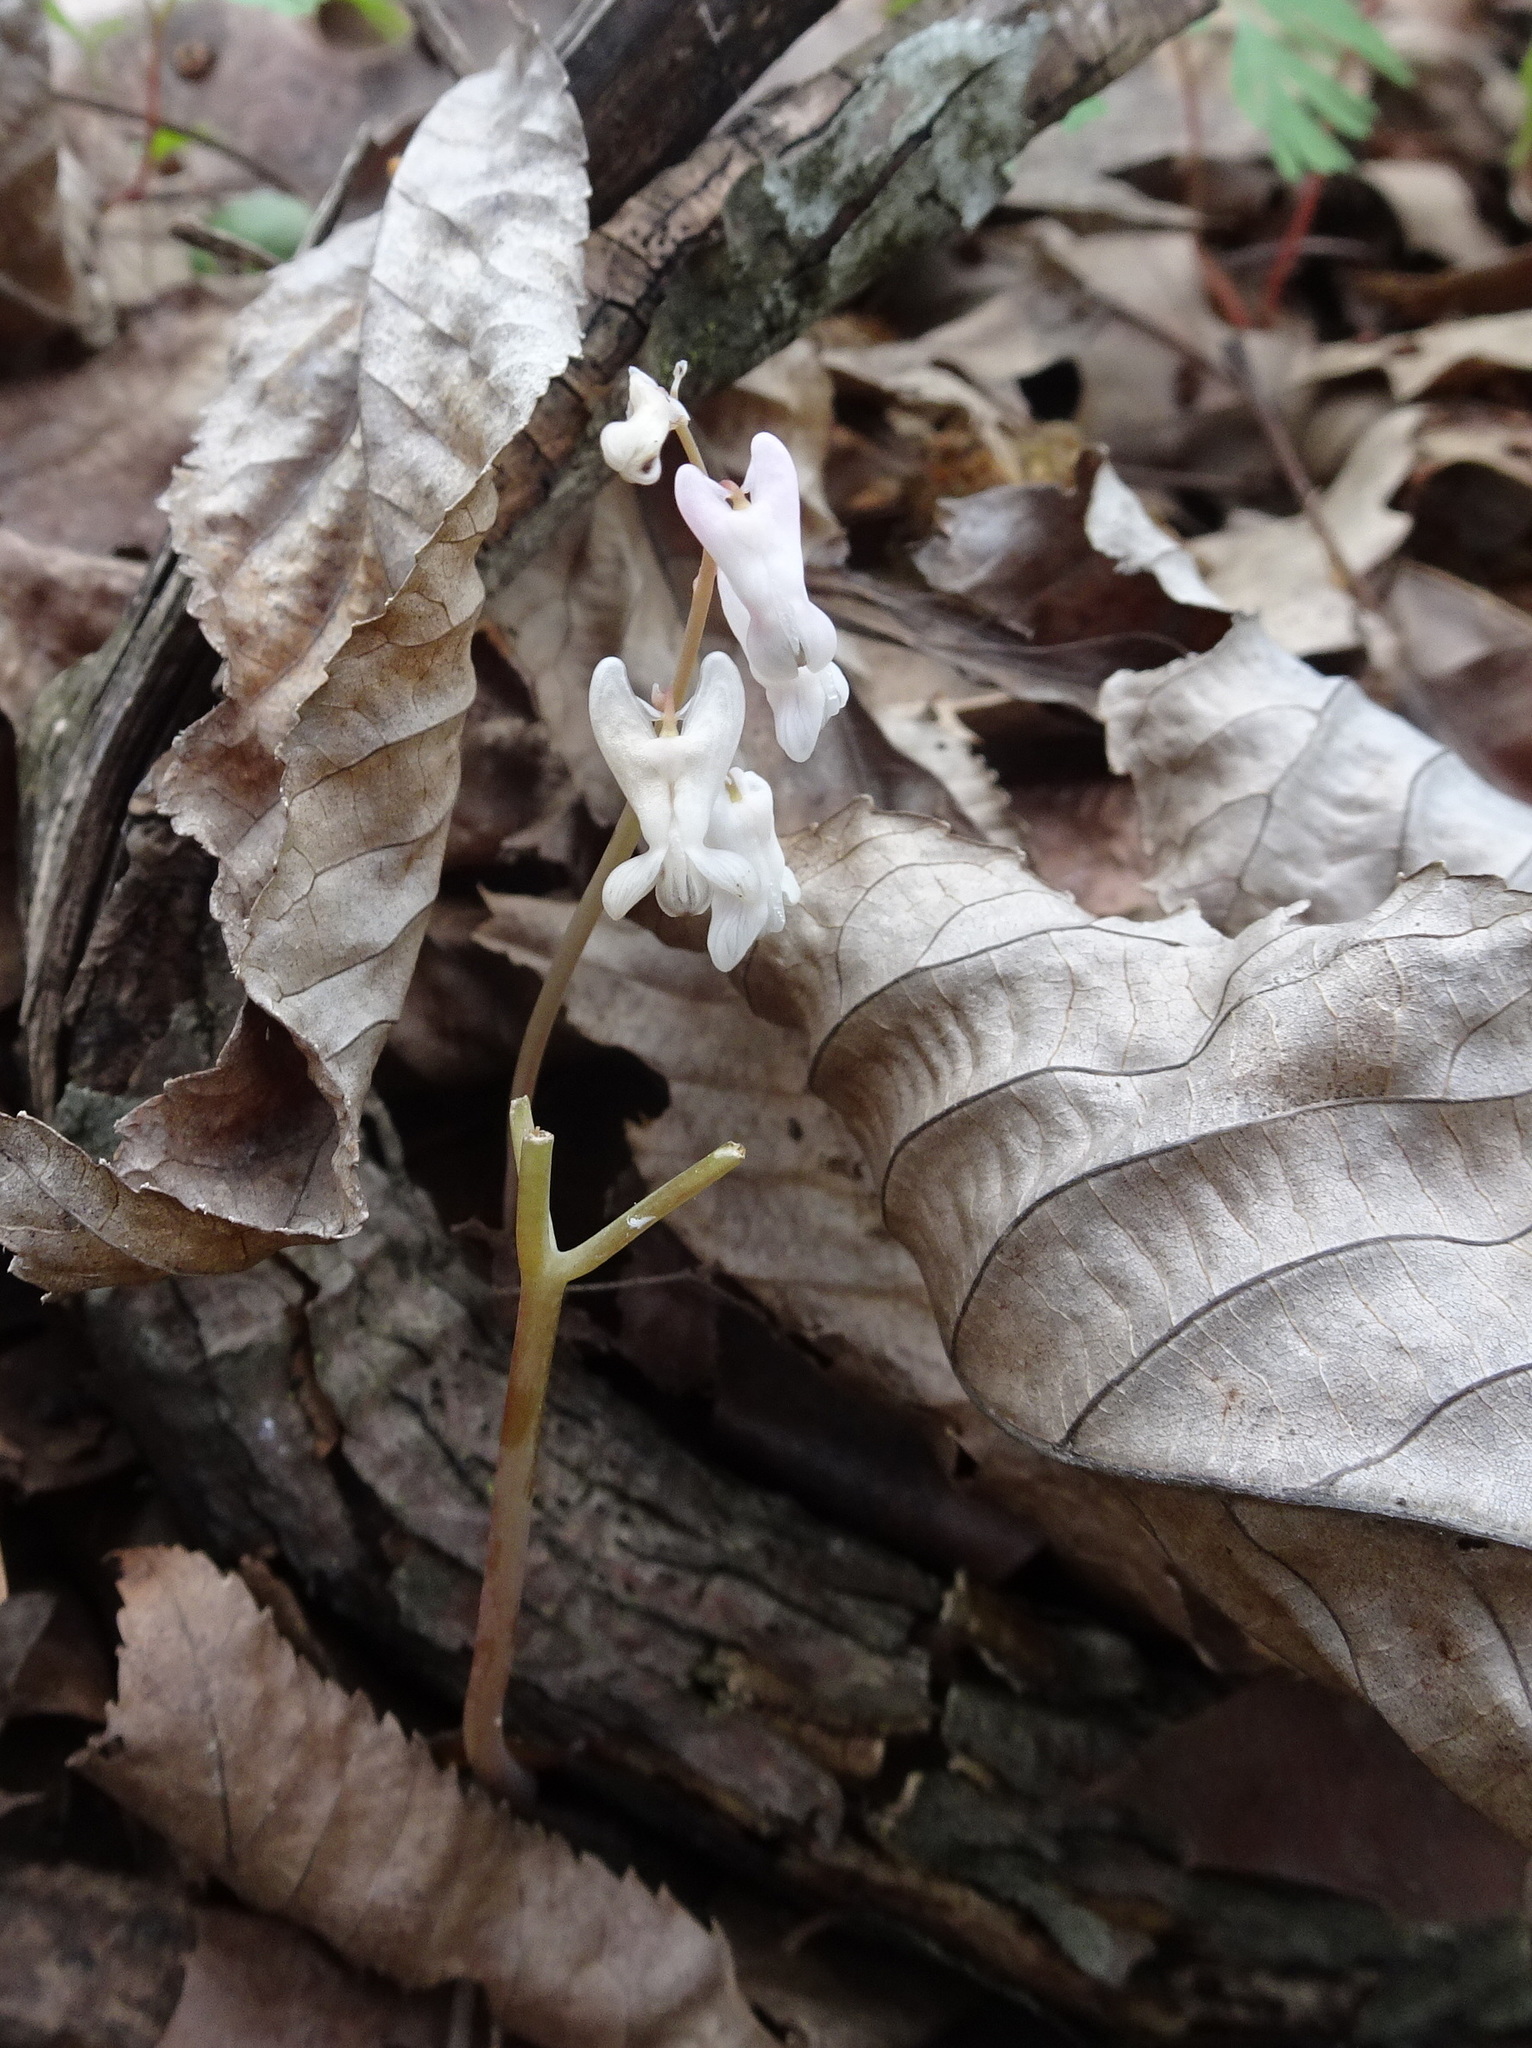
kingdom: Plantae
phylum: Tracheophyta
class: Magnoliopsida
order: Ranunculales
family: Papaveraceae
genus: Dicentra
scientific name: Dicentra cucullaria
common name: Dutchman's breeches
